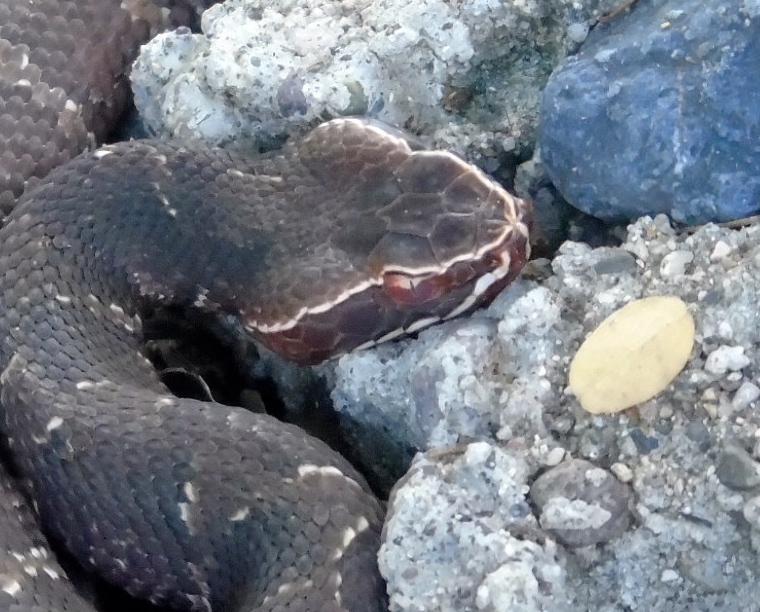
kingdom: Animalia
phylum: Chordata
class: Squamata
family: Viperidae
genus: Agkistrodon
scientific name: Agkistrodon bilineatus
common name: Mexican moccasin
